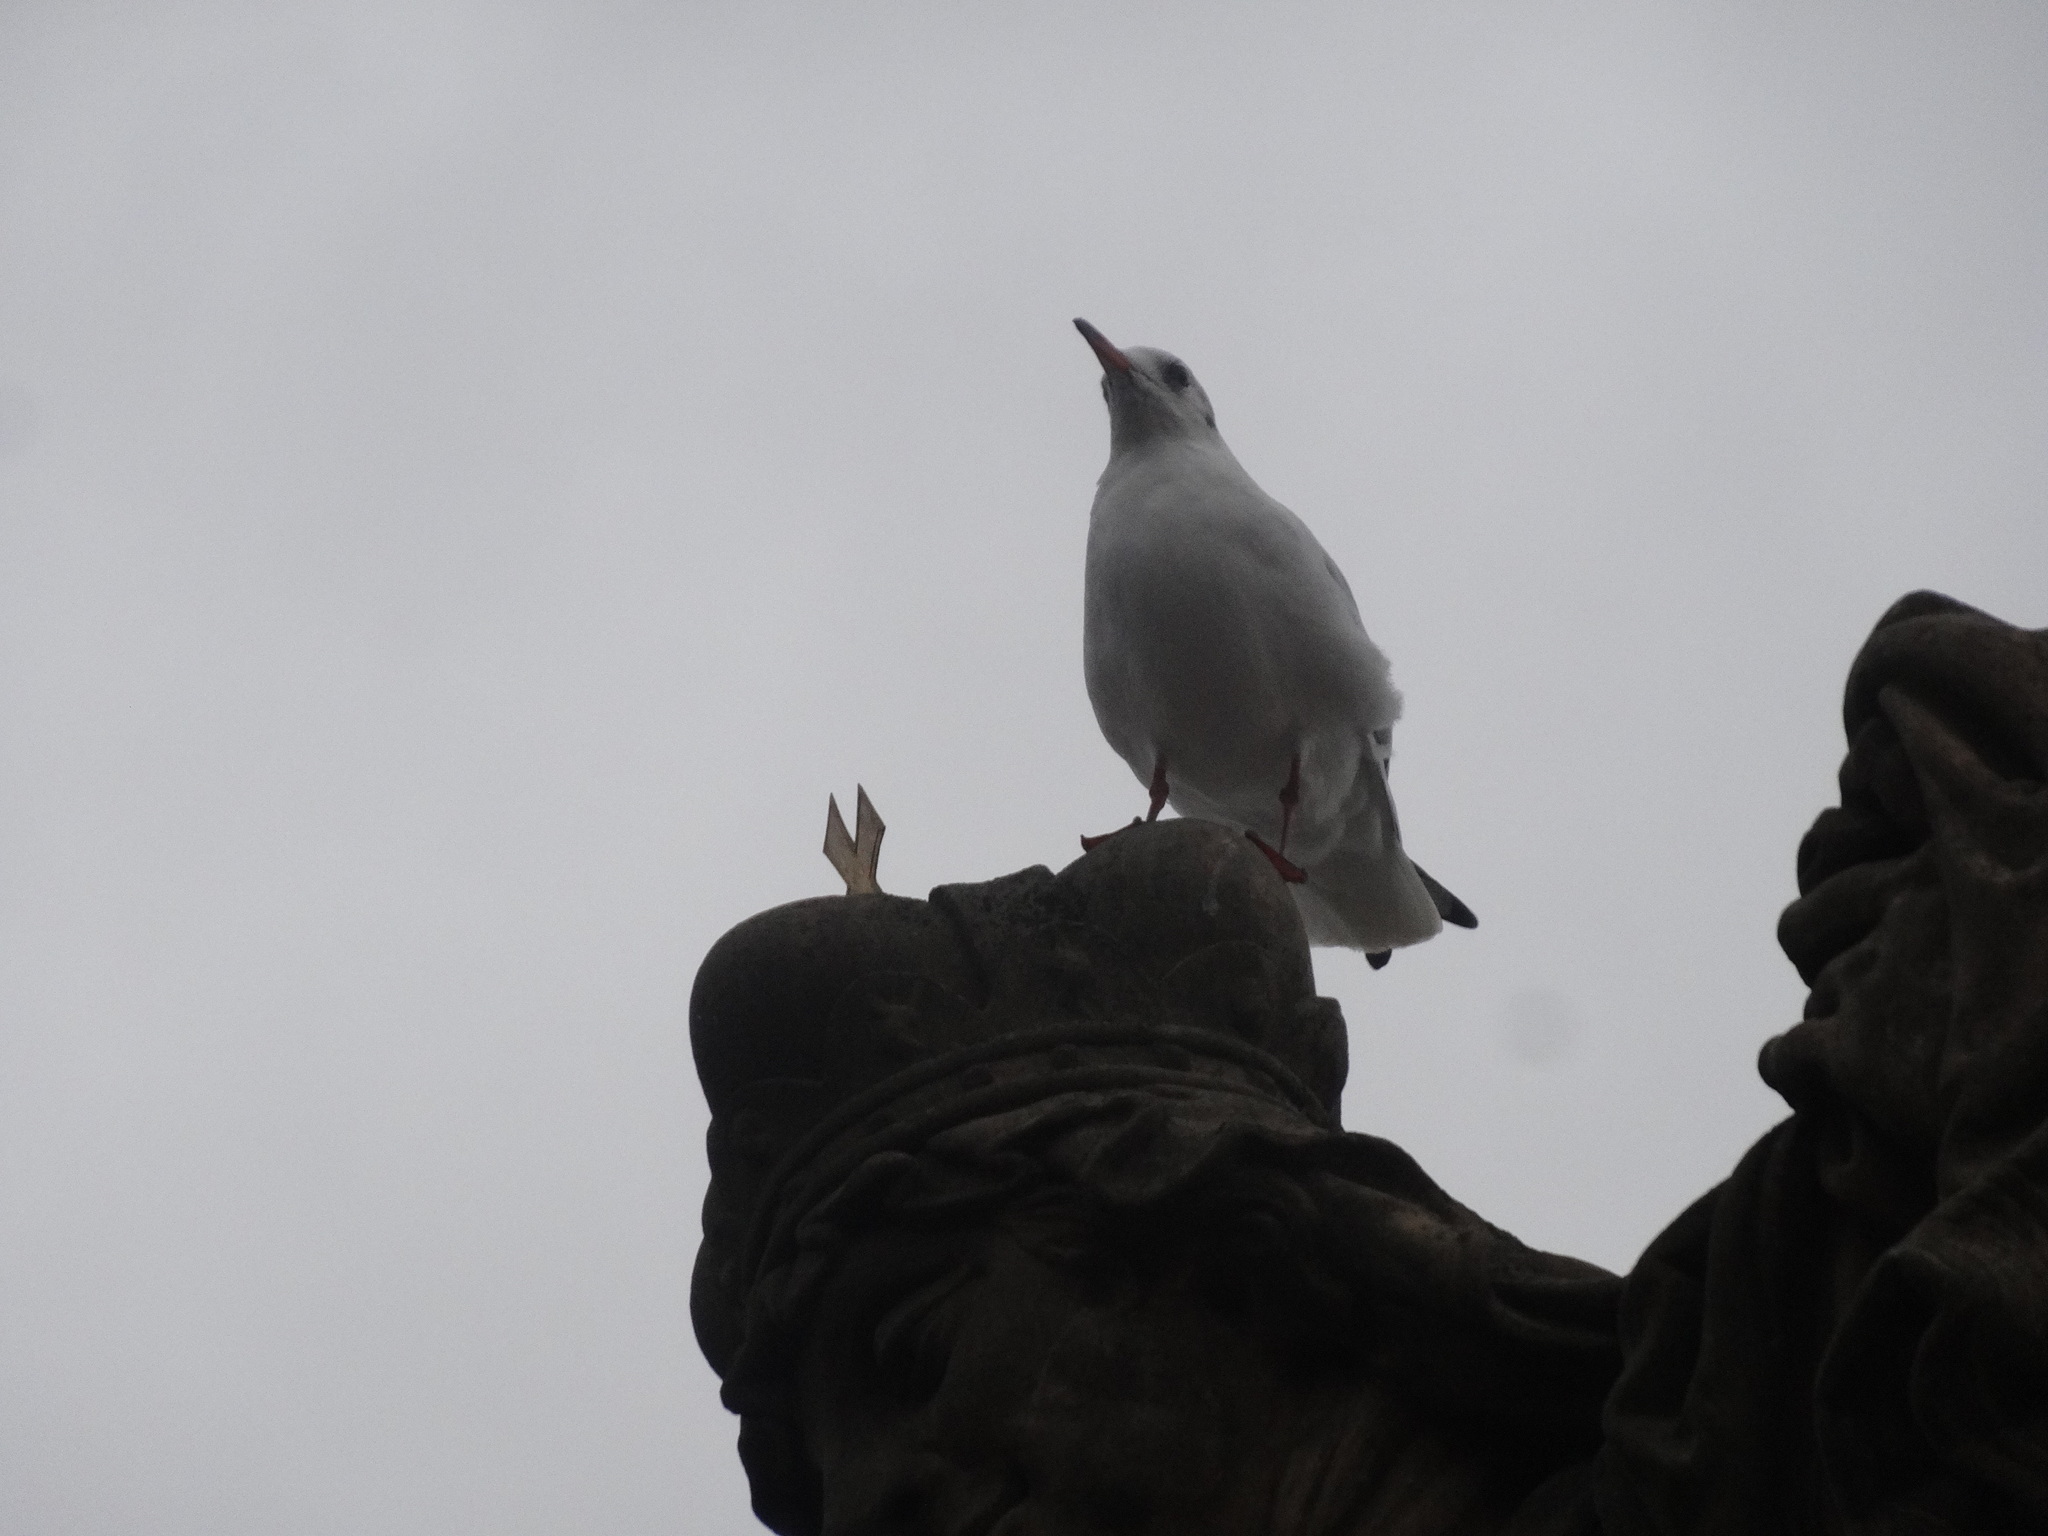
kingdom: Animalia
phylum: Chordata
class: Aves
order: Charadriiformes
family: Laridae
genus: Chroicocephalus
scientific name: Chroicocephalus ridibundus
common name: Black-headed gull
